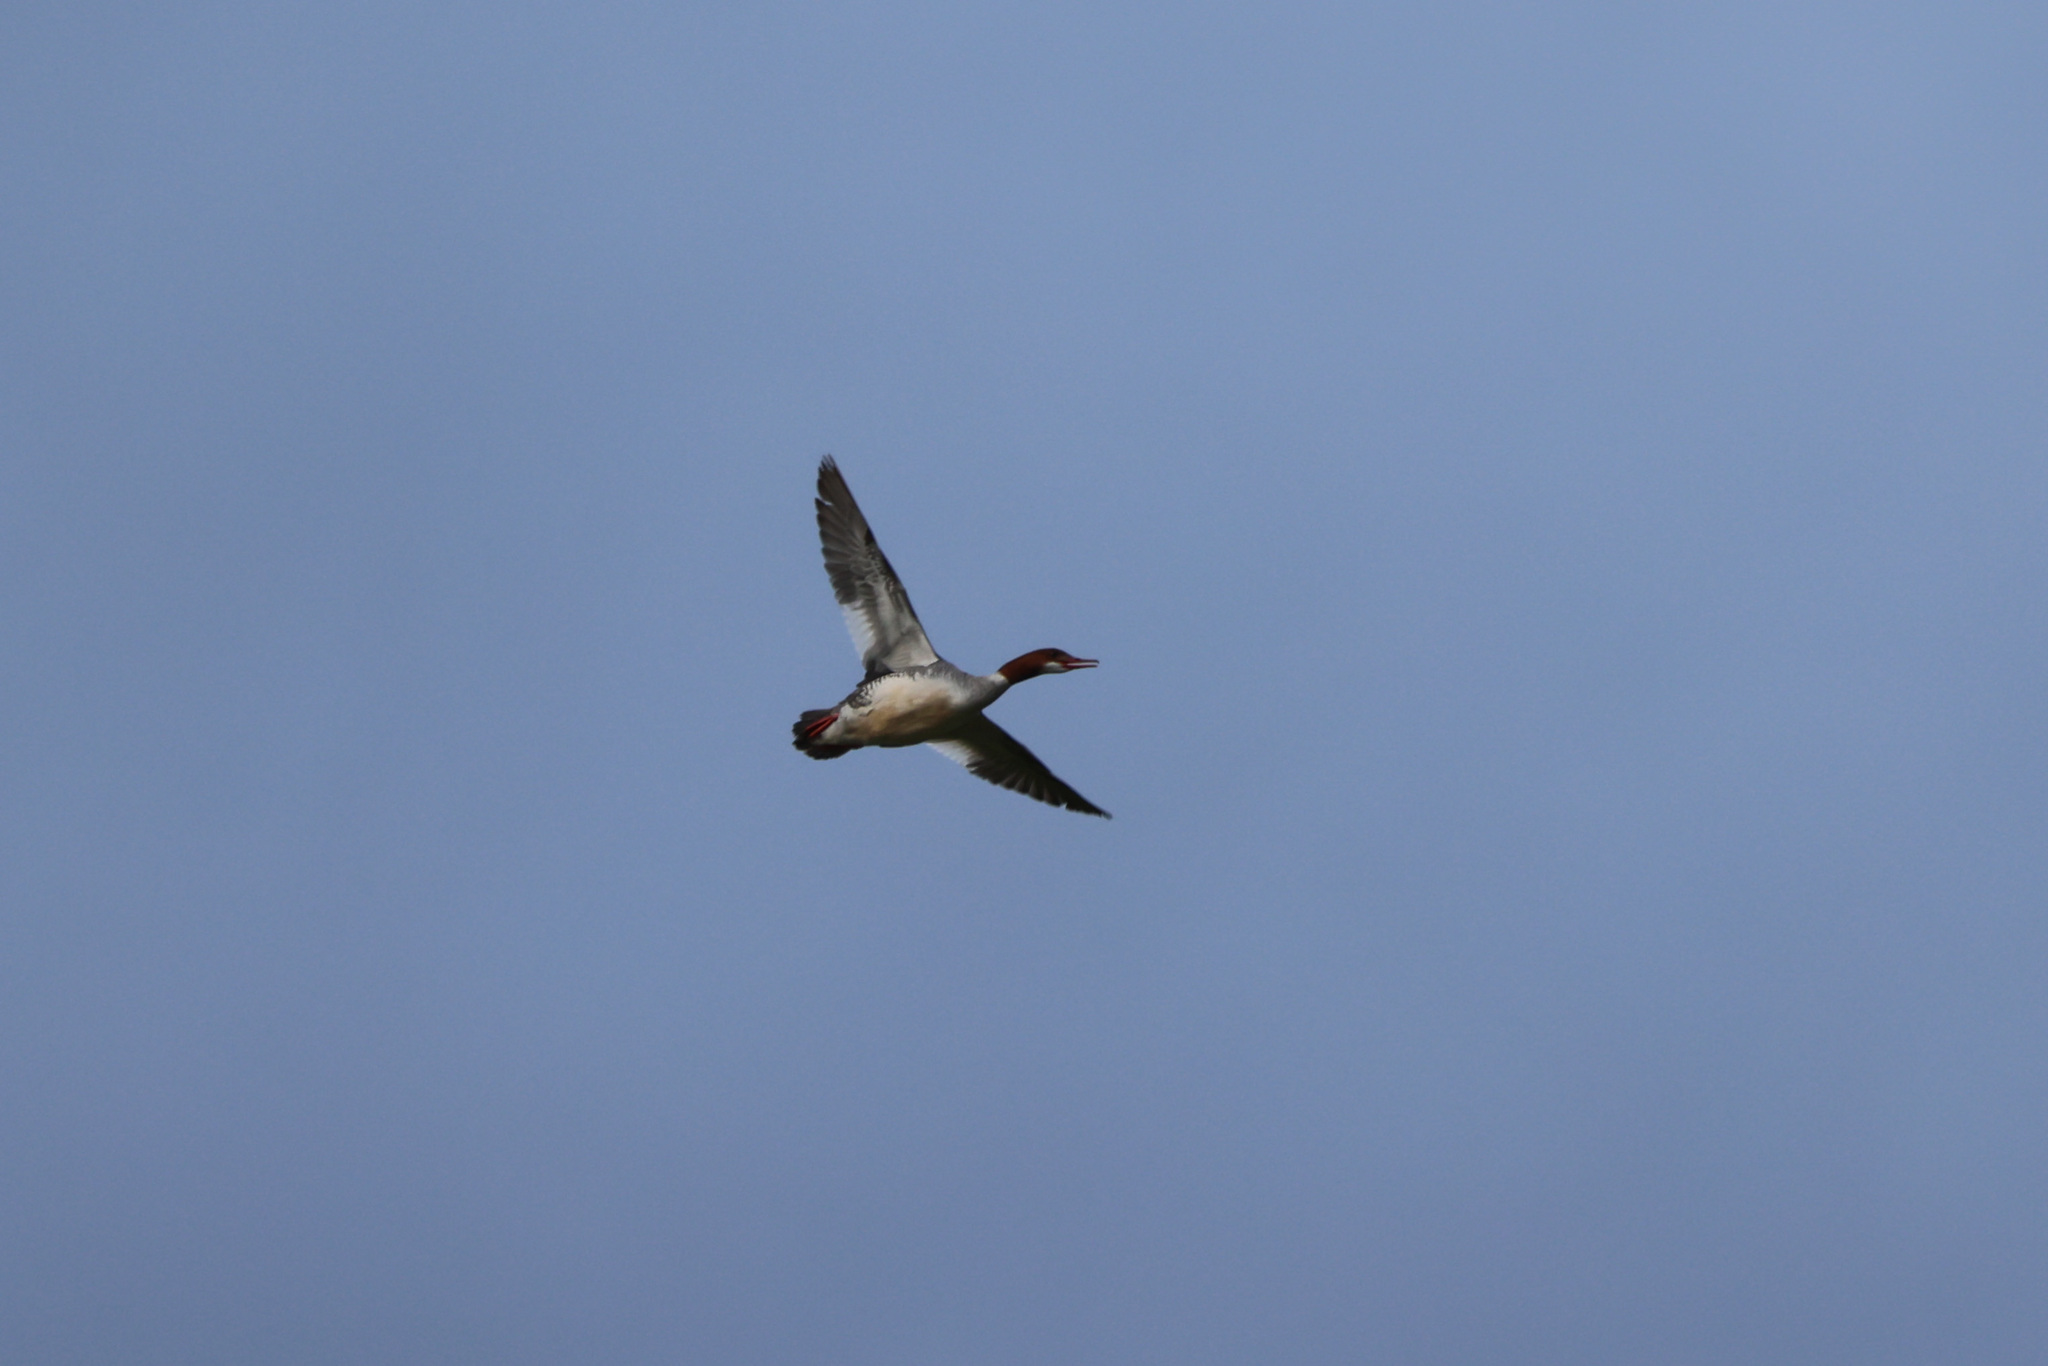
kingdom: Animalia
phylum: Chordata
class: Aves
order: Anseriformes
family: Anatidae
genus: Mergus
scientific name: Mergus merganser
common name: Common merganser
